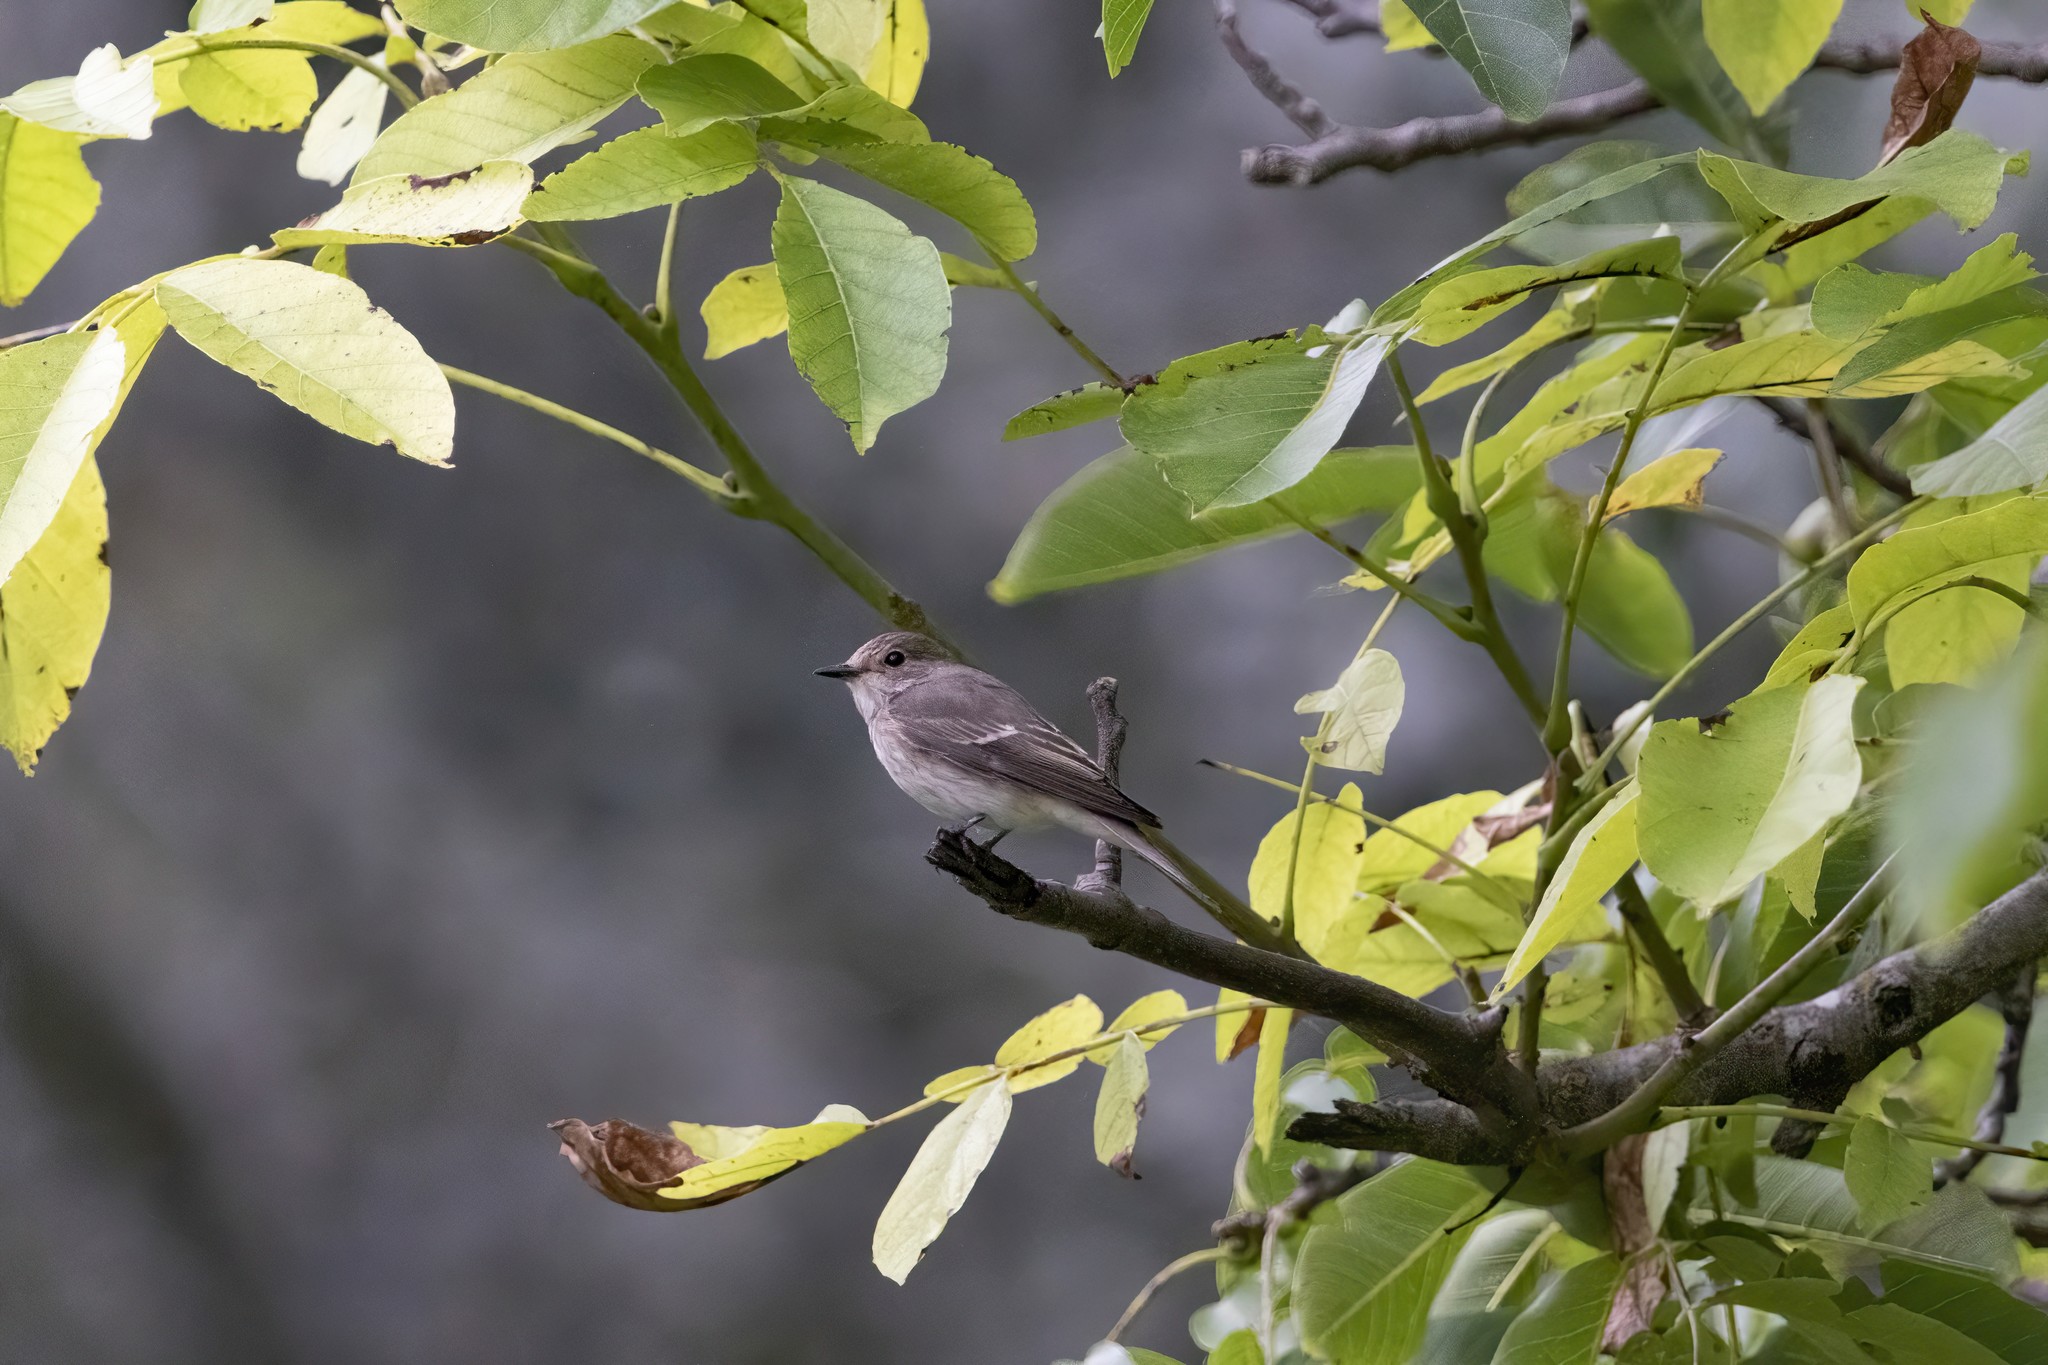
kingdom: Animalia
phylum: Chordata
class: Aves
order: Passeriformes
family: Muscicapidae
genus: Muscicapa
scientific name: Muscicapa striata
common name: Spotted flycatcher
